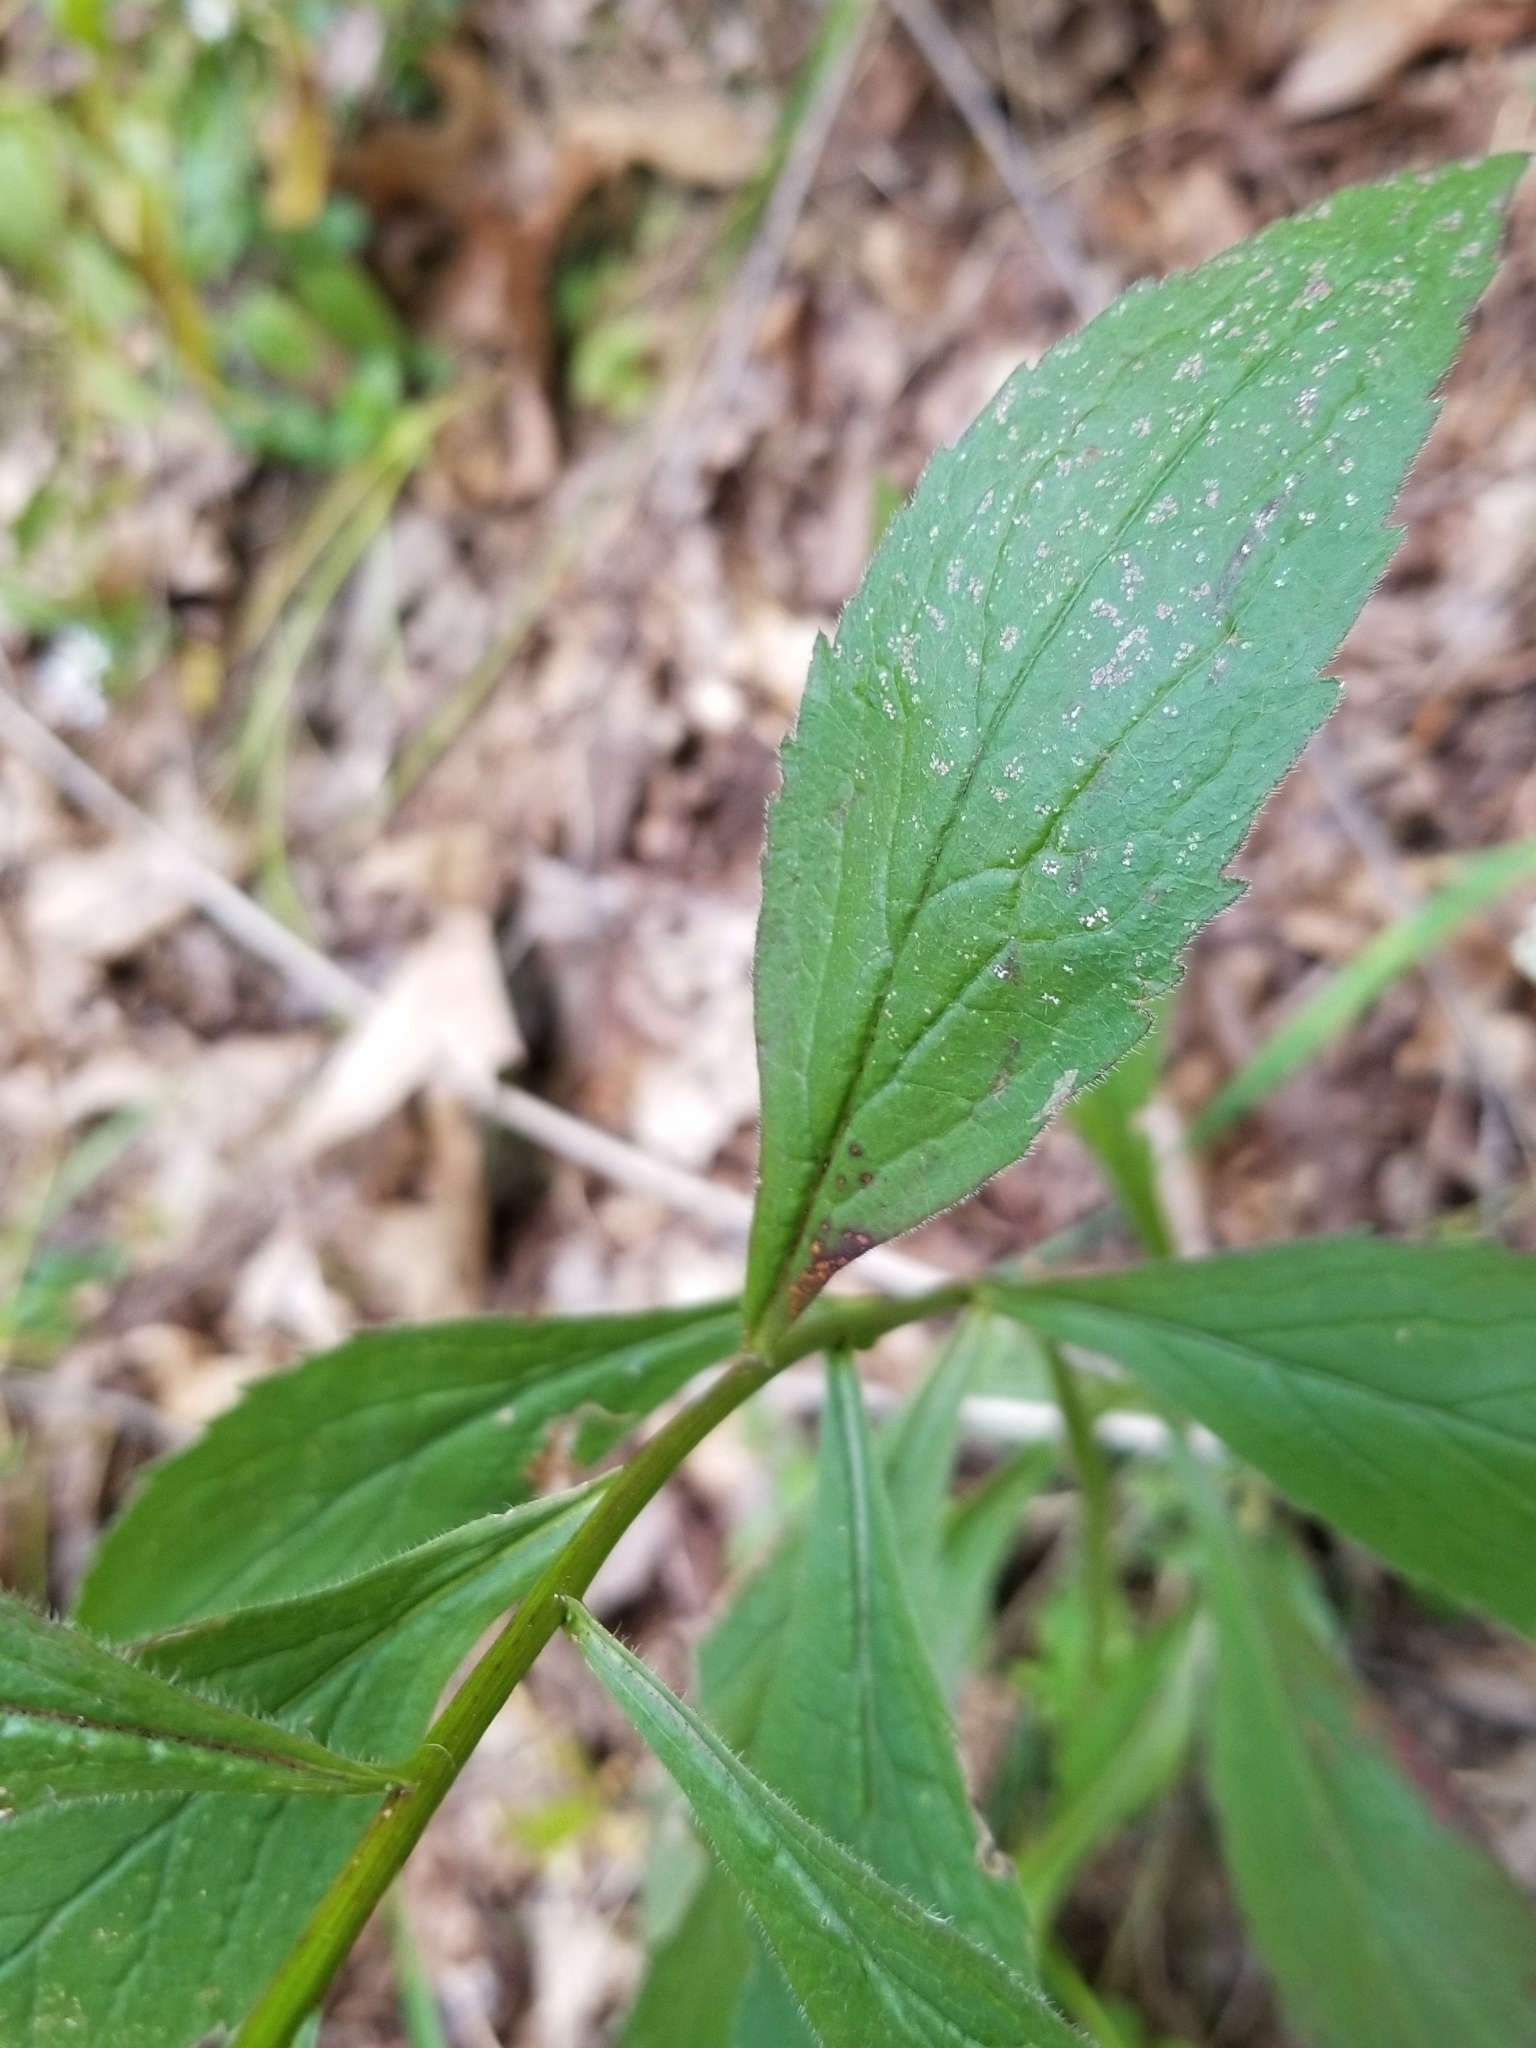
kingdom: Plantae
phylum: Tracheophyta
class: Magnoliopsida
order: Asterales
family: Asteraceae
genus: Solidago
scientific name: Solidago ulmifolia
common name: Elm-leaf goldenrod
